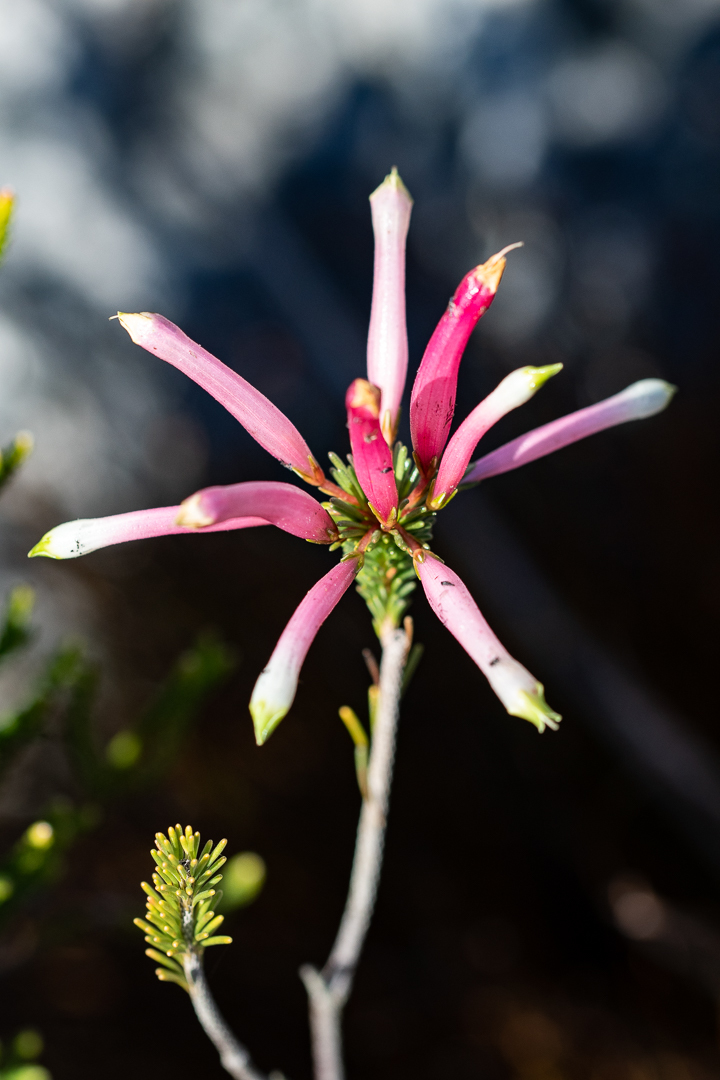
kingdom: Plantae
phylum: Tracheophyta
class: Magnoliopsida
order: Ericales
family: Ericaceae
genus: Erica
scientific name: Erica fascicularis
